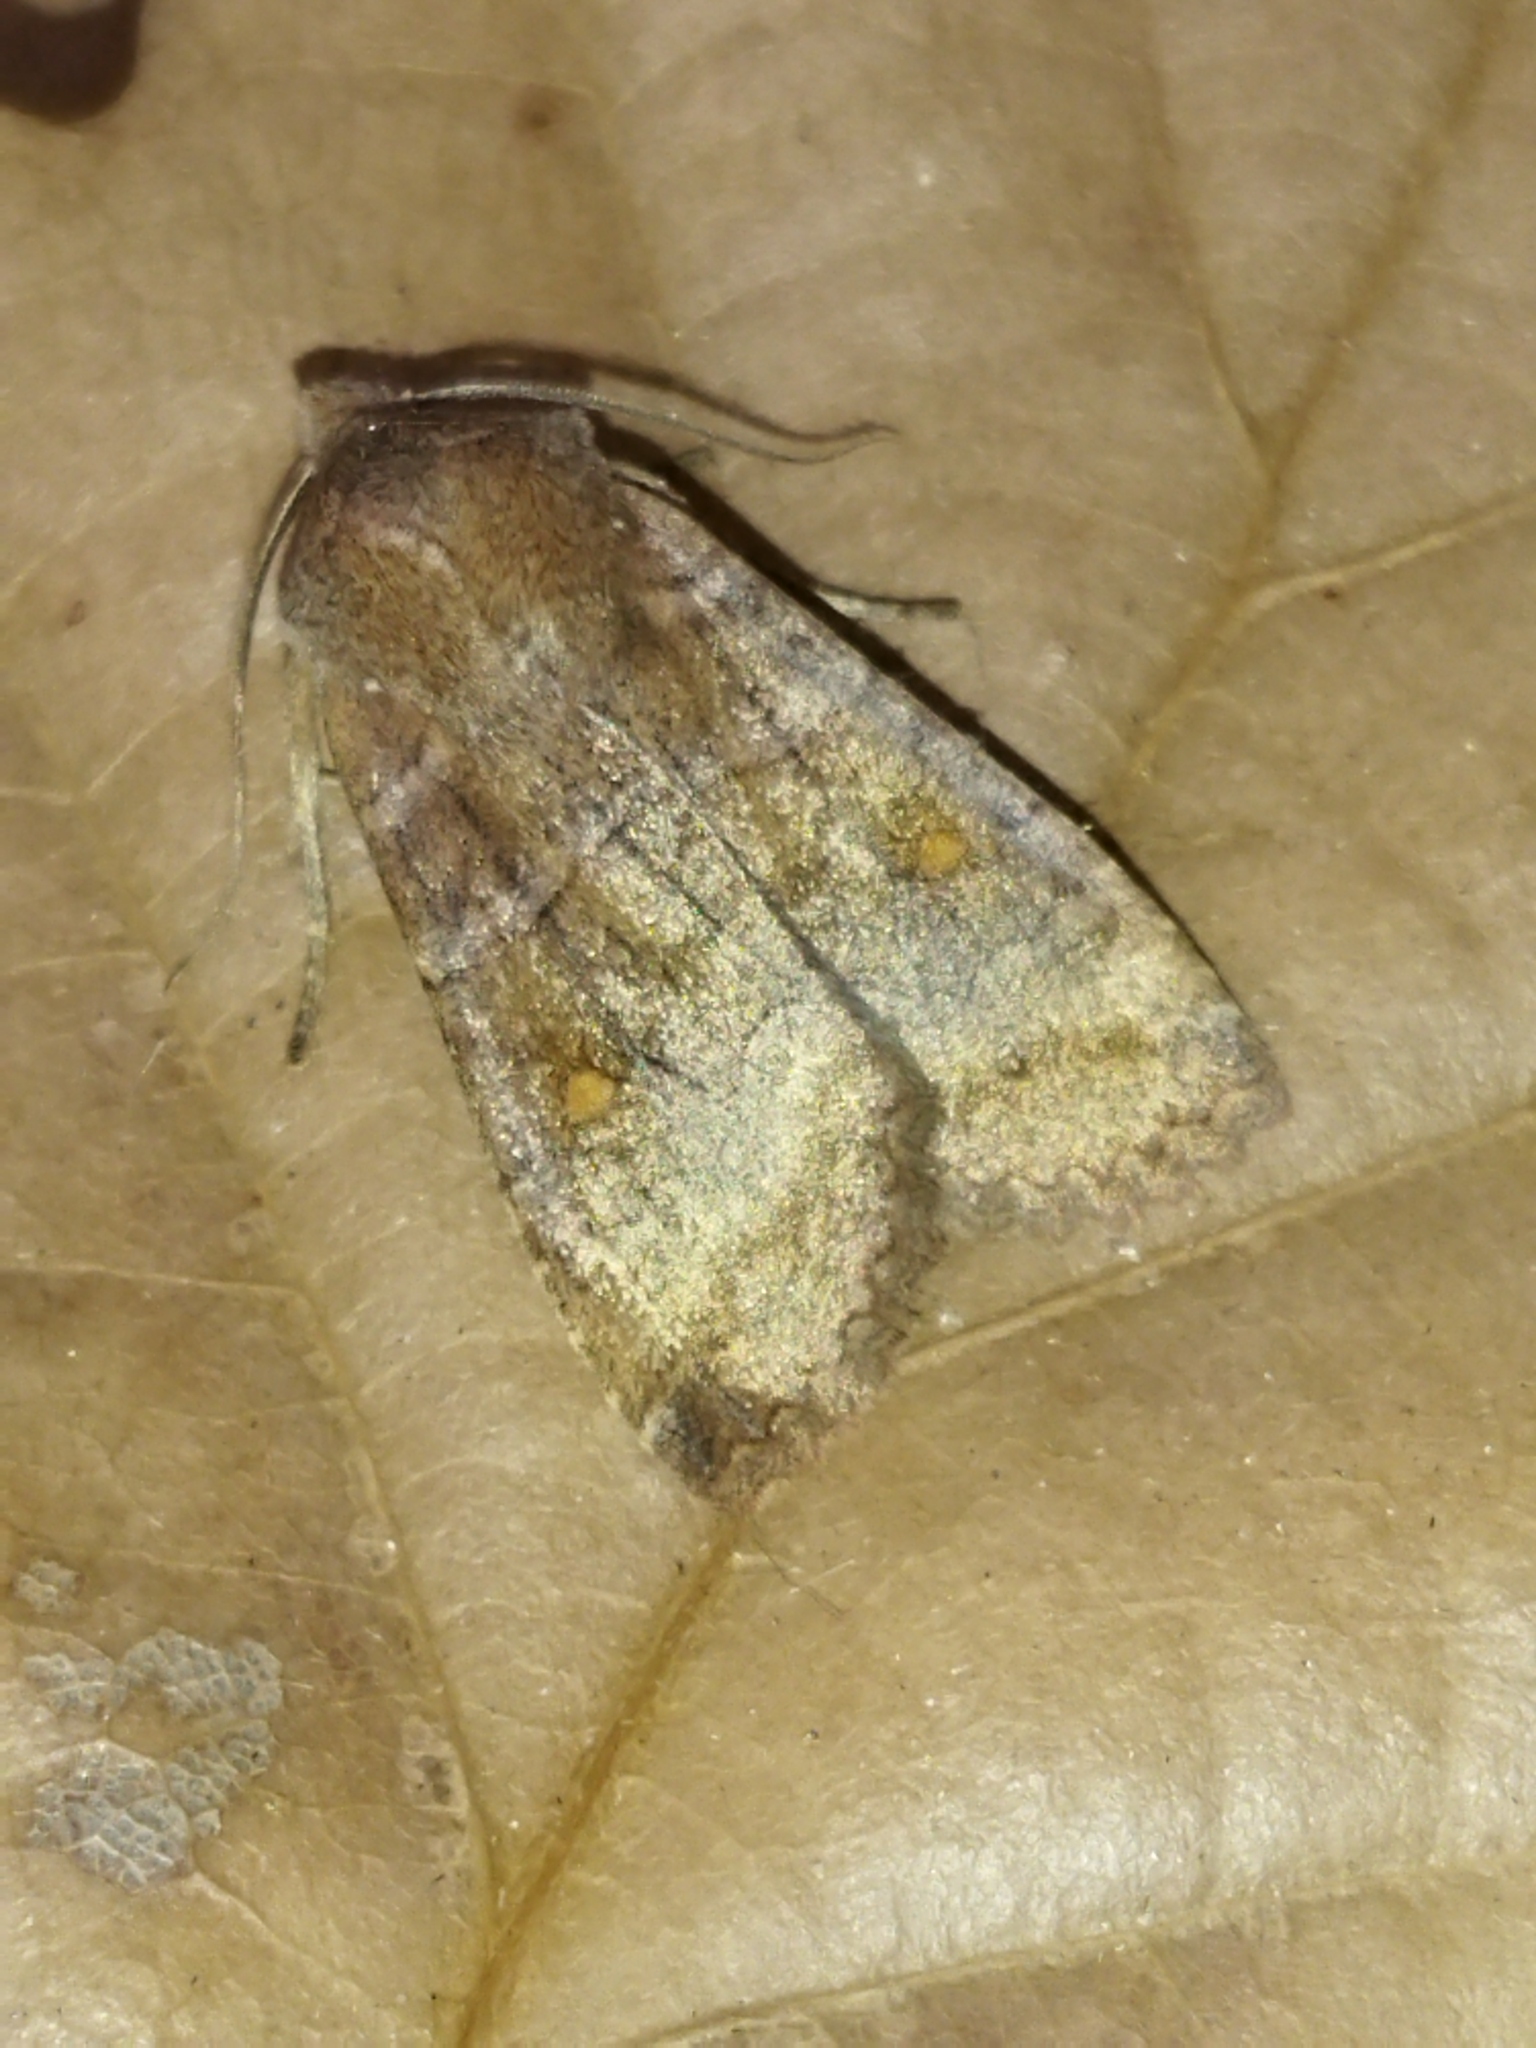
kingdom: Animalia
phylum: Arthropoda
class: Insecta
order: Lepidoptera
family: Noctuidae
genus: Eupsilia
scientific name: Eupsilia transversa
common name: Satellite
